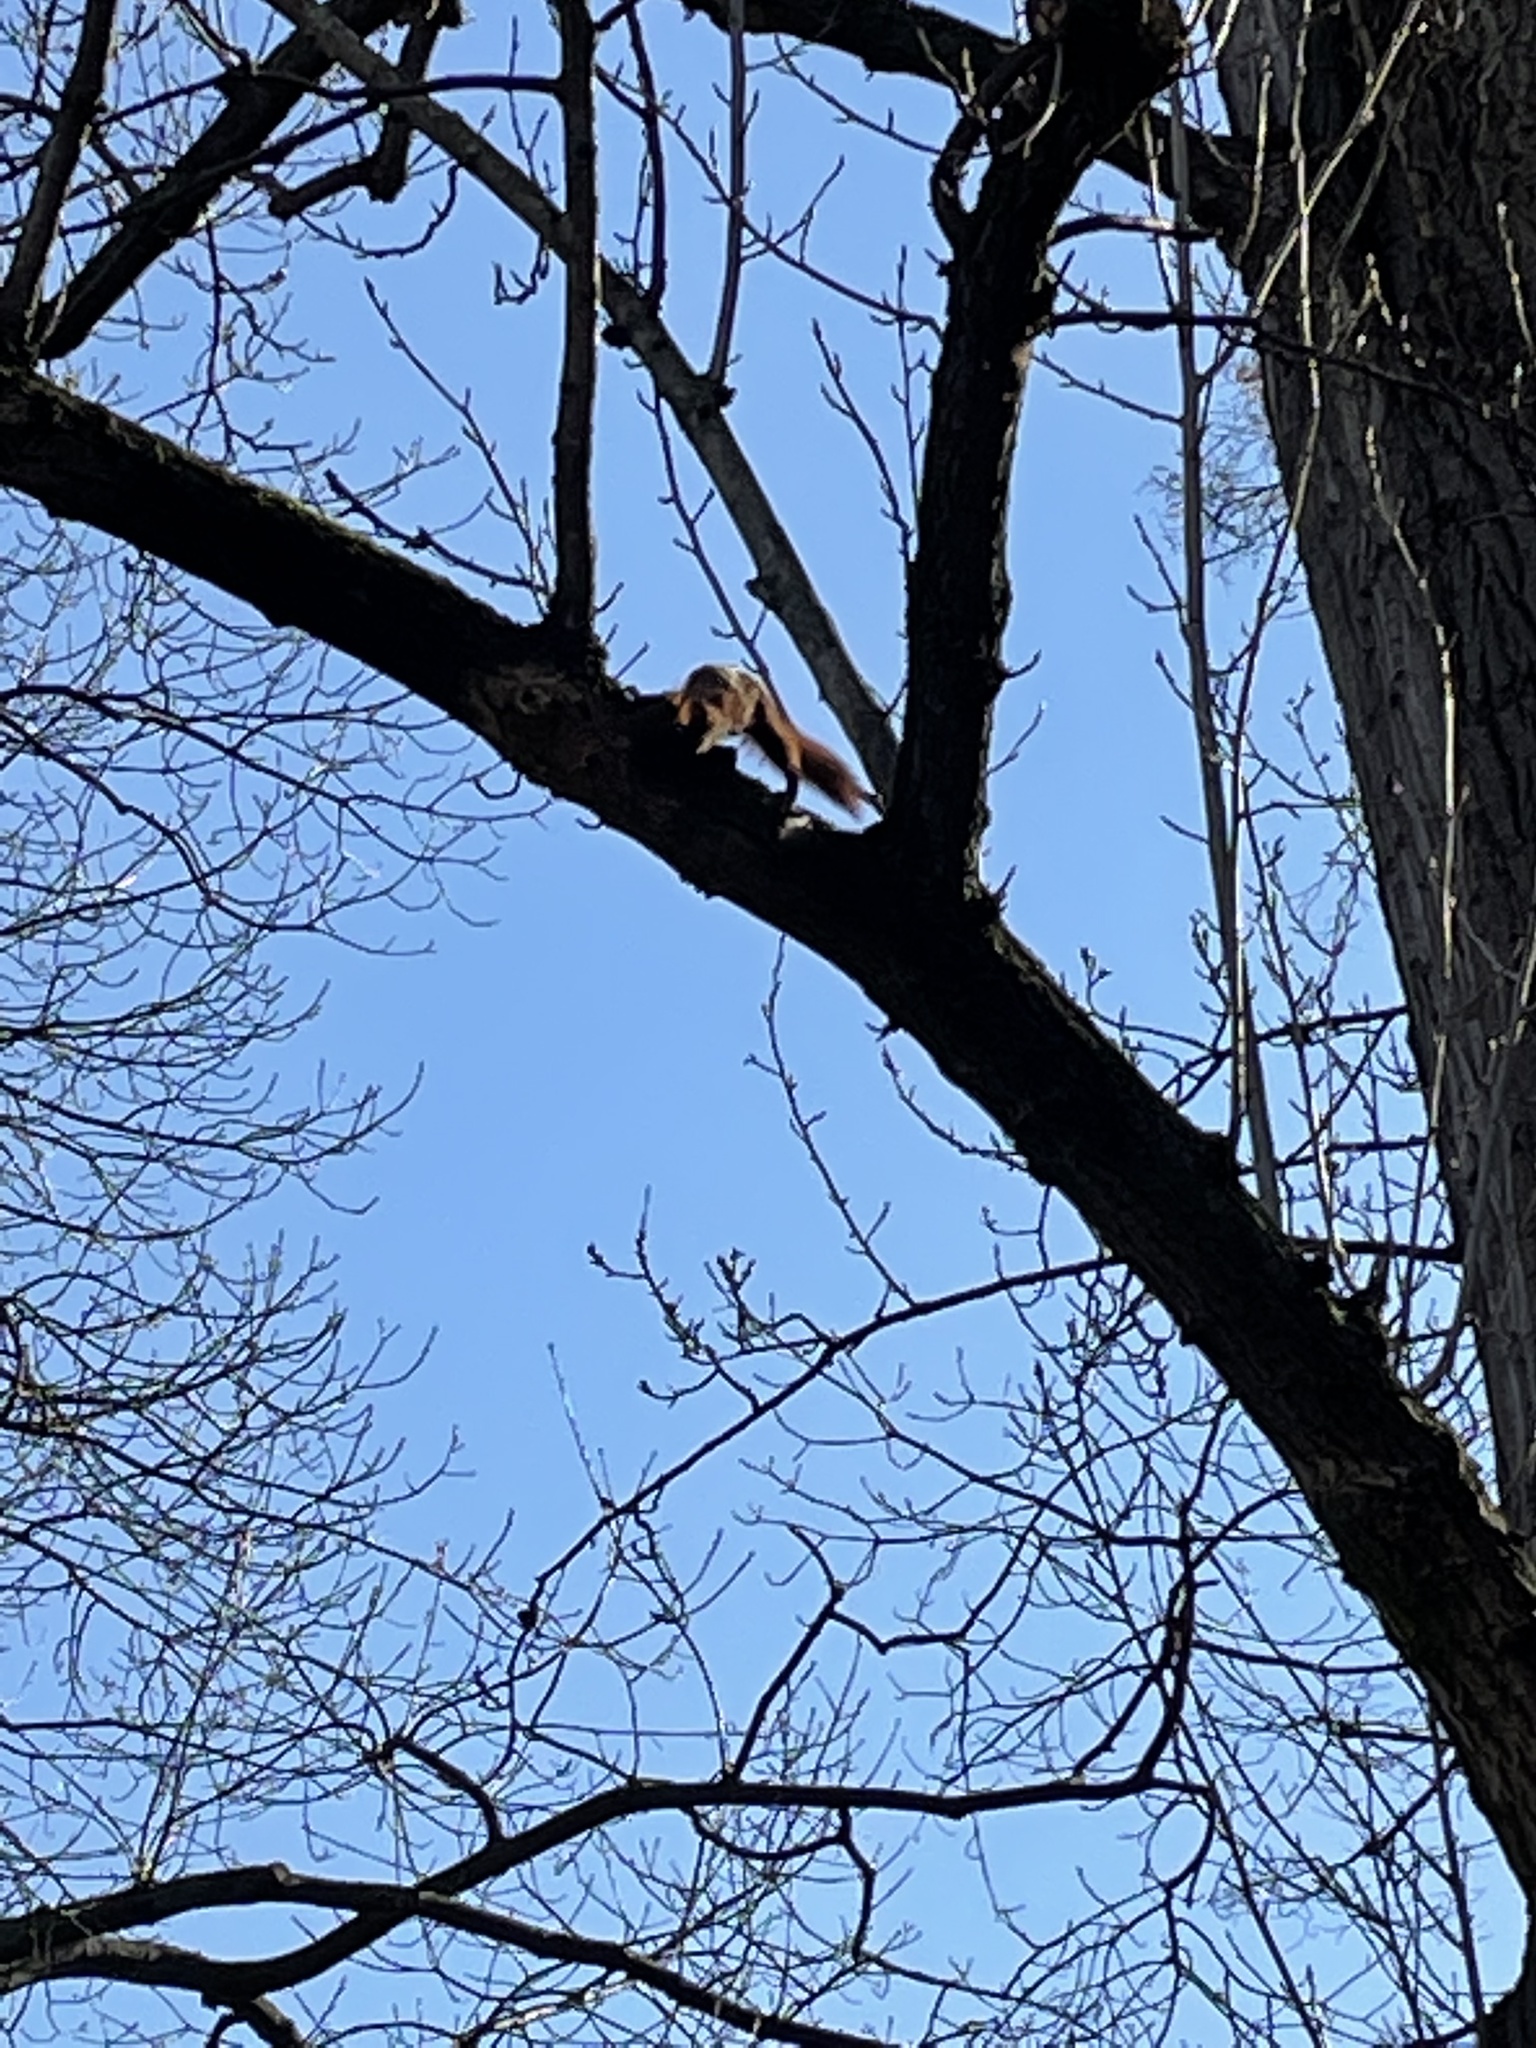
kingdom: Animalia
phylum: Chordata
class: Mammalia
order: Rodentia
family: Sciuridae
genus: Sciurus
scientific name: Sciurus vulgaris
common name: Eurasian red squirrel
